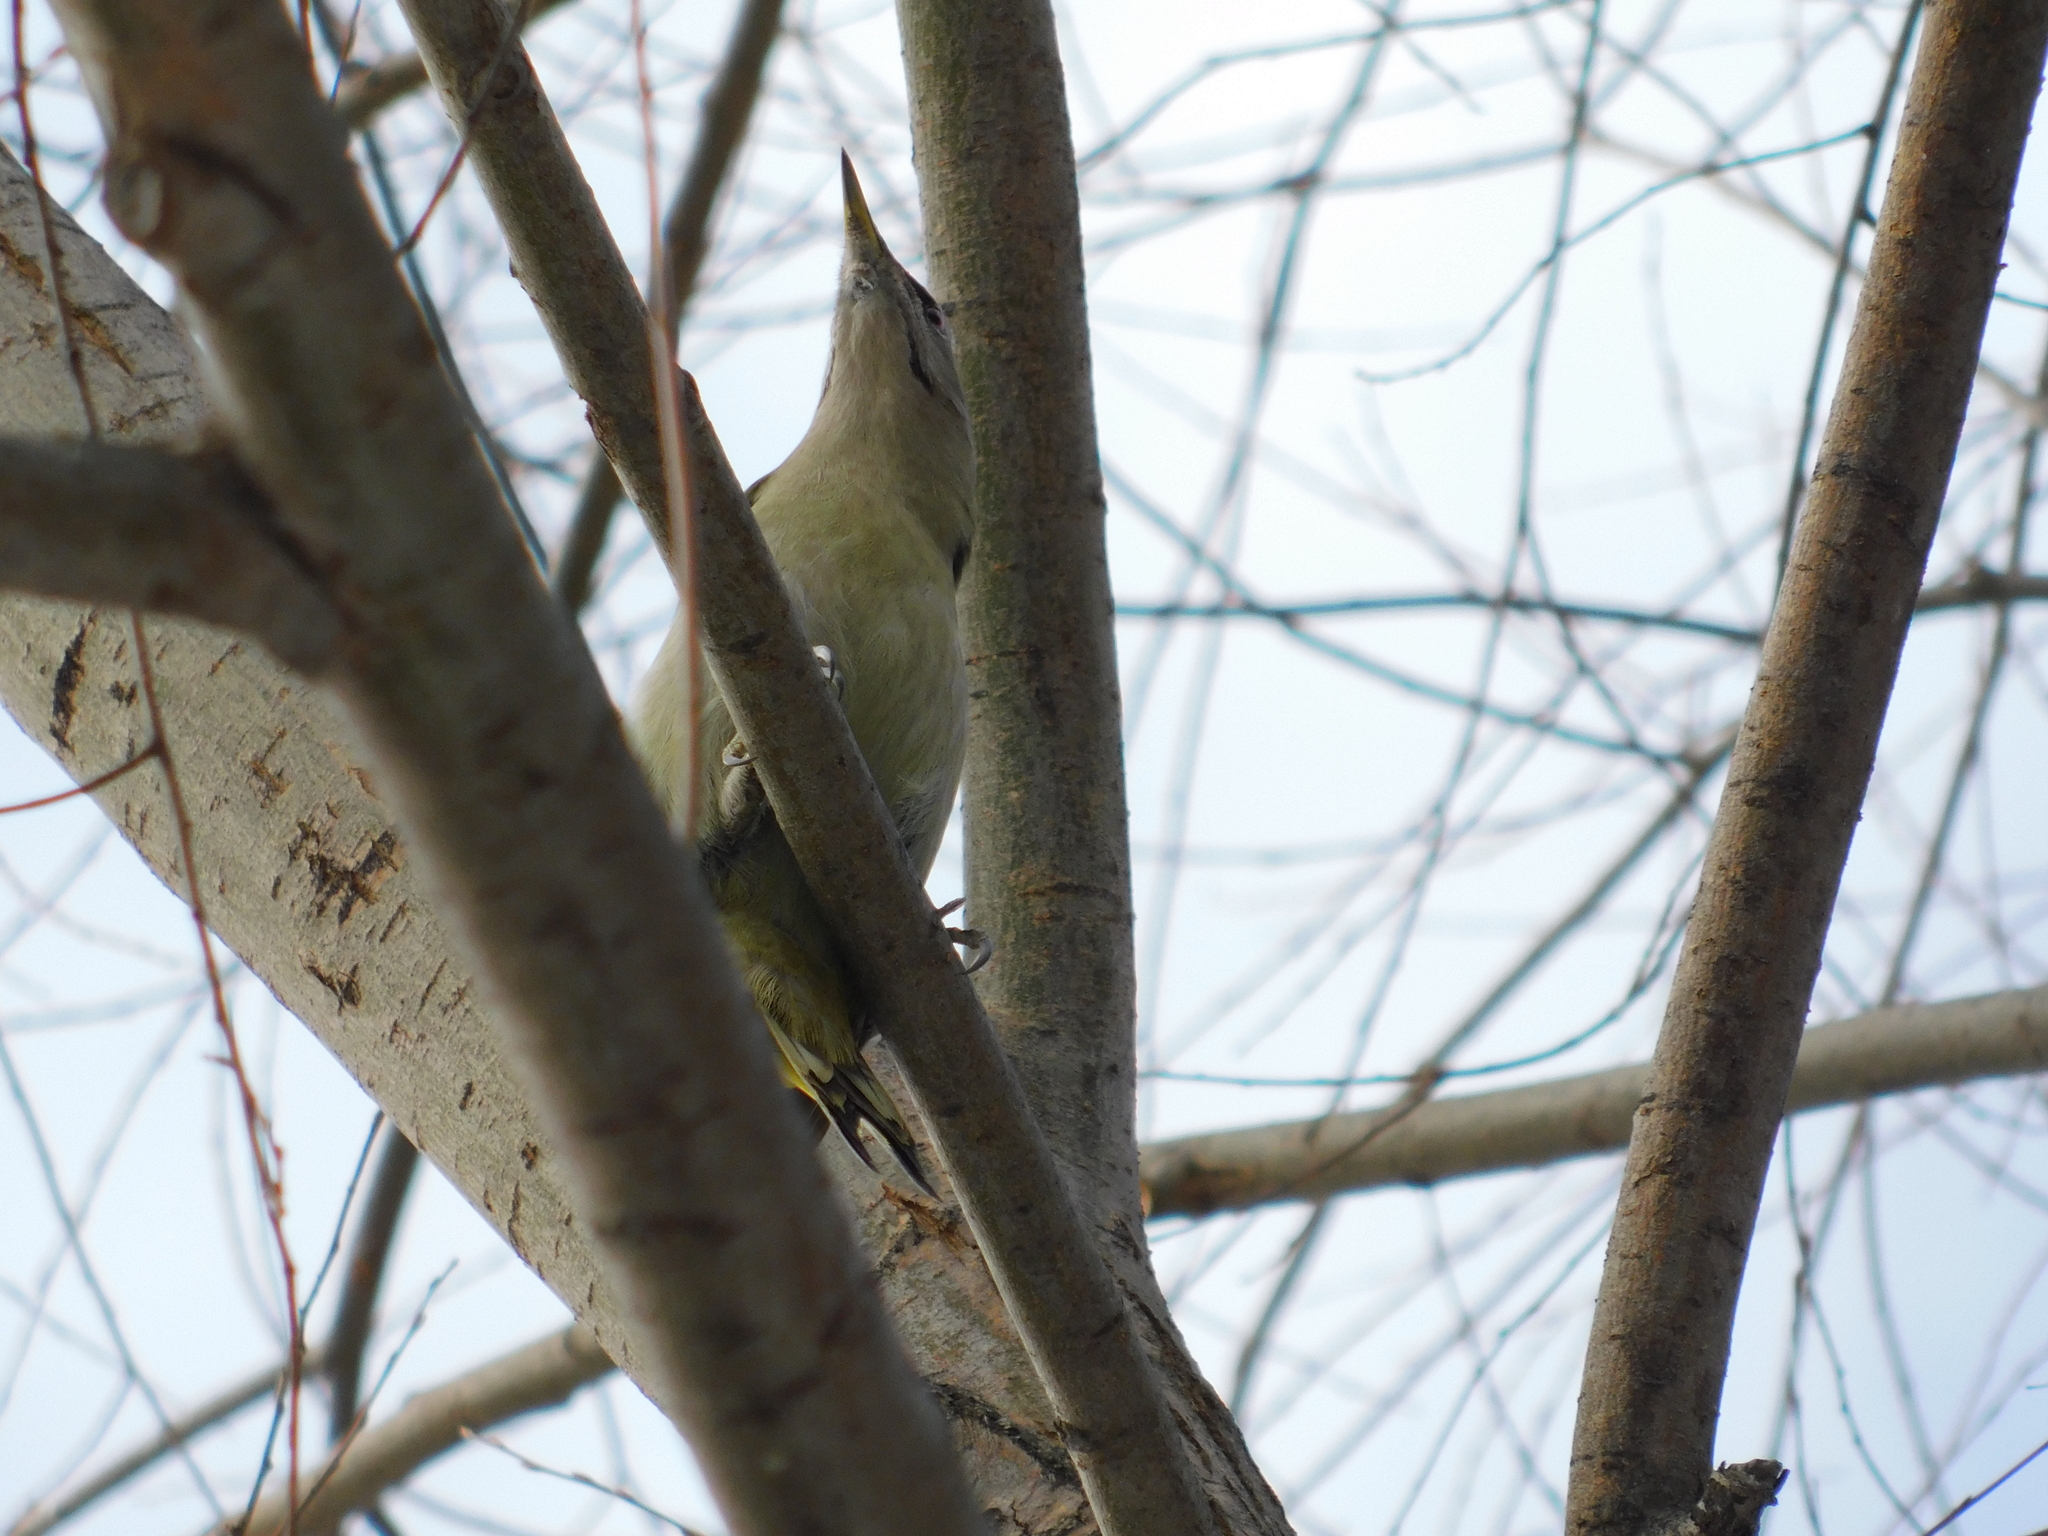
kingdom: Animalia
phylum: Chordata
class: Aves
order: Piciformes
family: Picidae
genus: Picus
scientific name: Picus canus
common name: Grey-headed woodpecker
